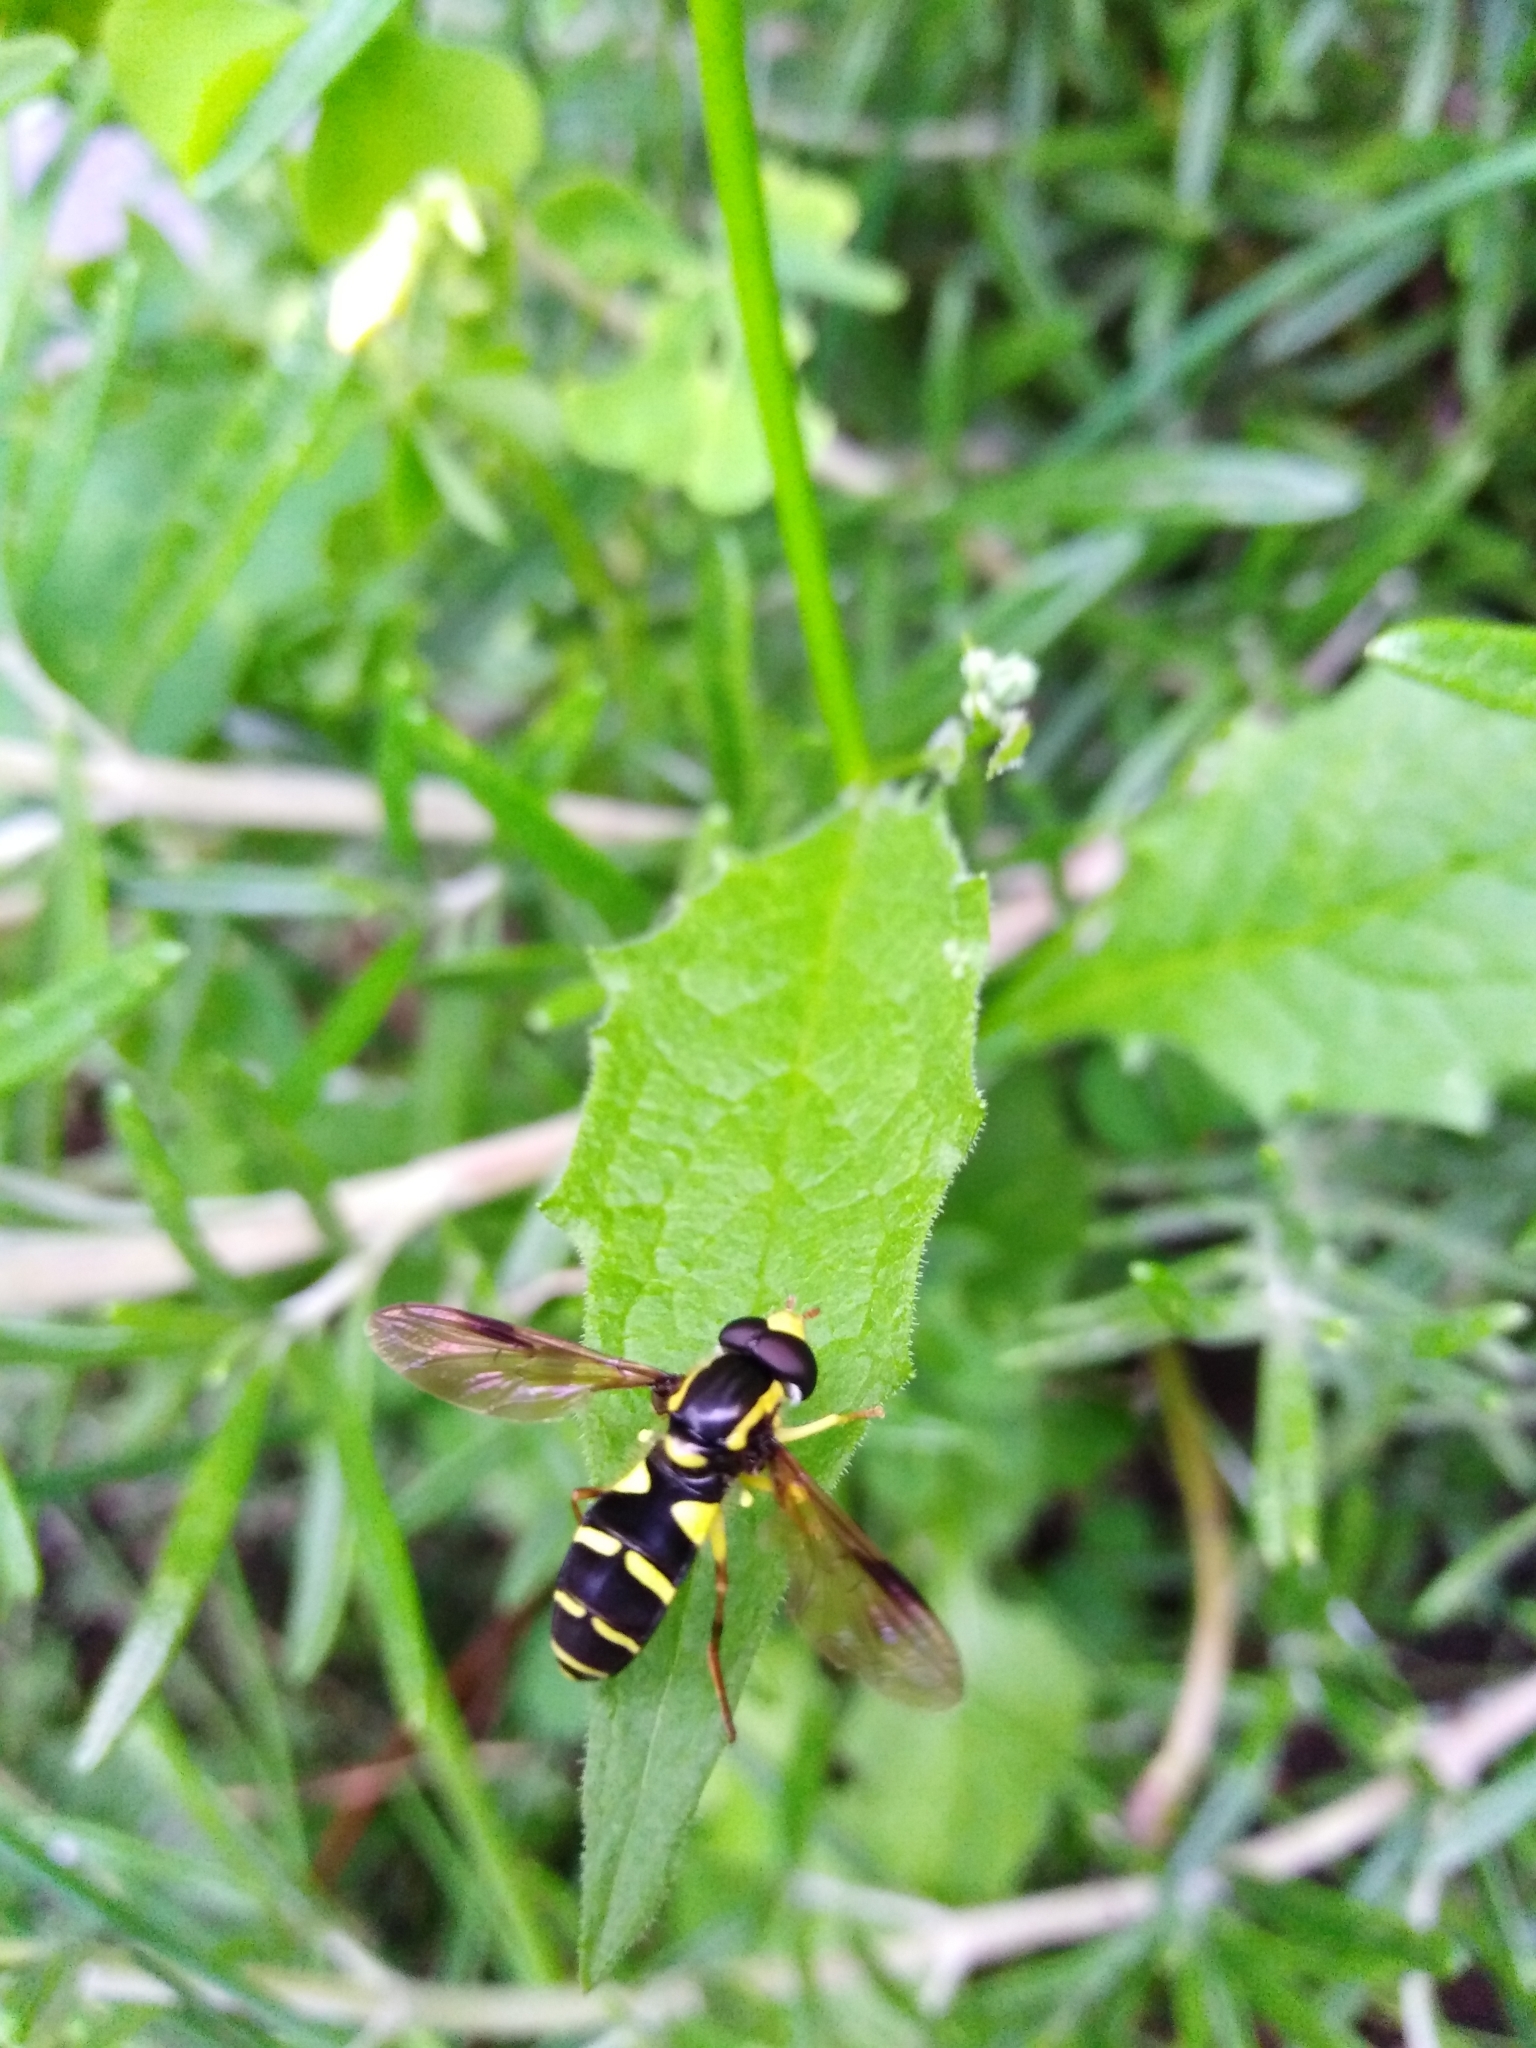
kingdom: Animalia
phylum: Arthropoda
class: Insecta
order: Diptera
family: Syrphidae
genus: Philhelius
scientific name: Philhelius dives
